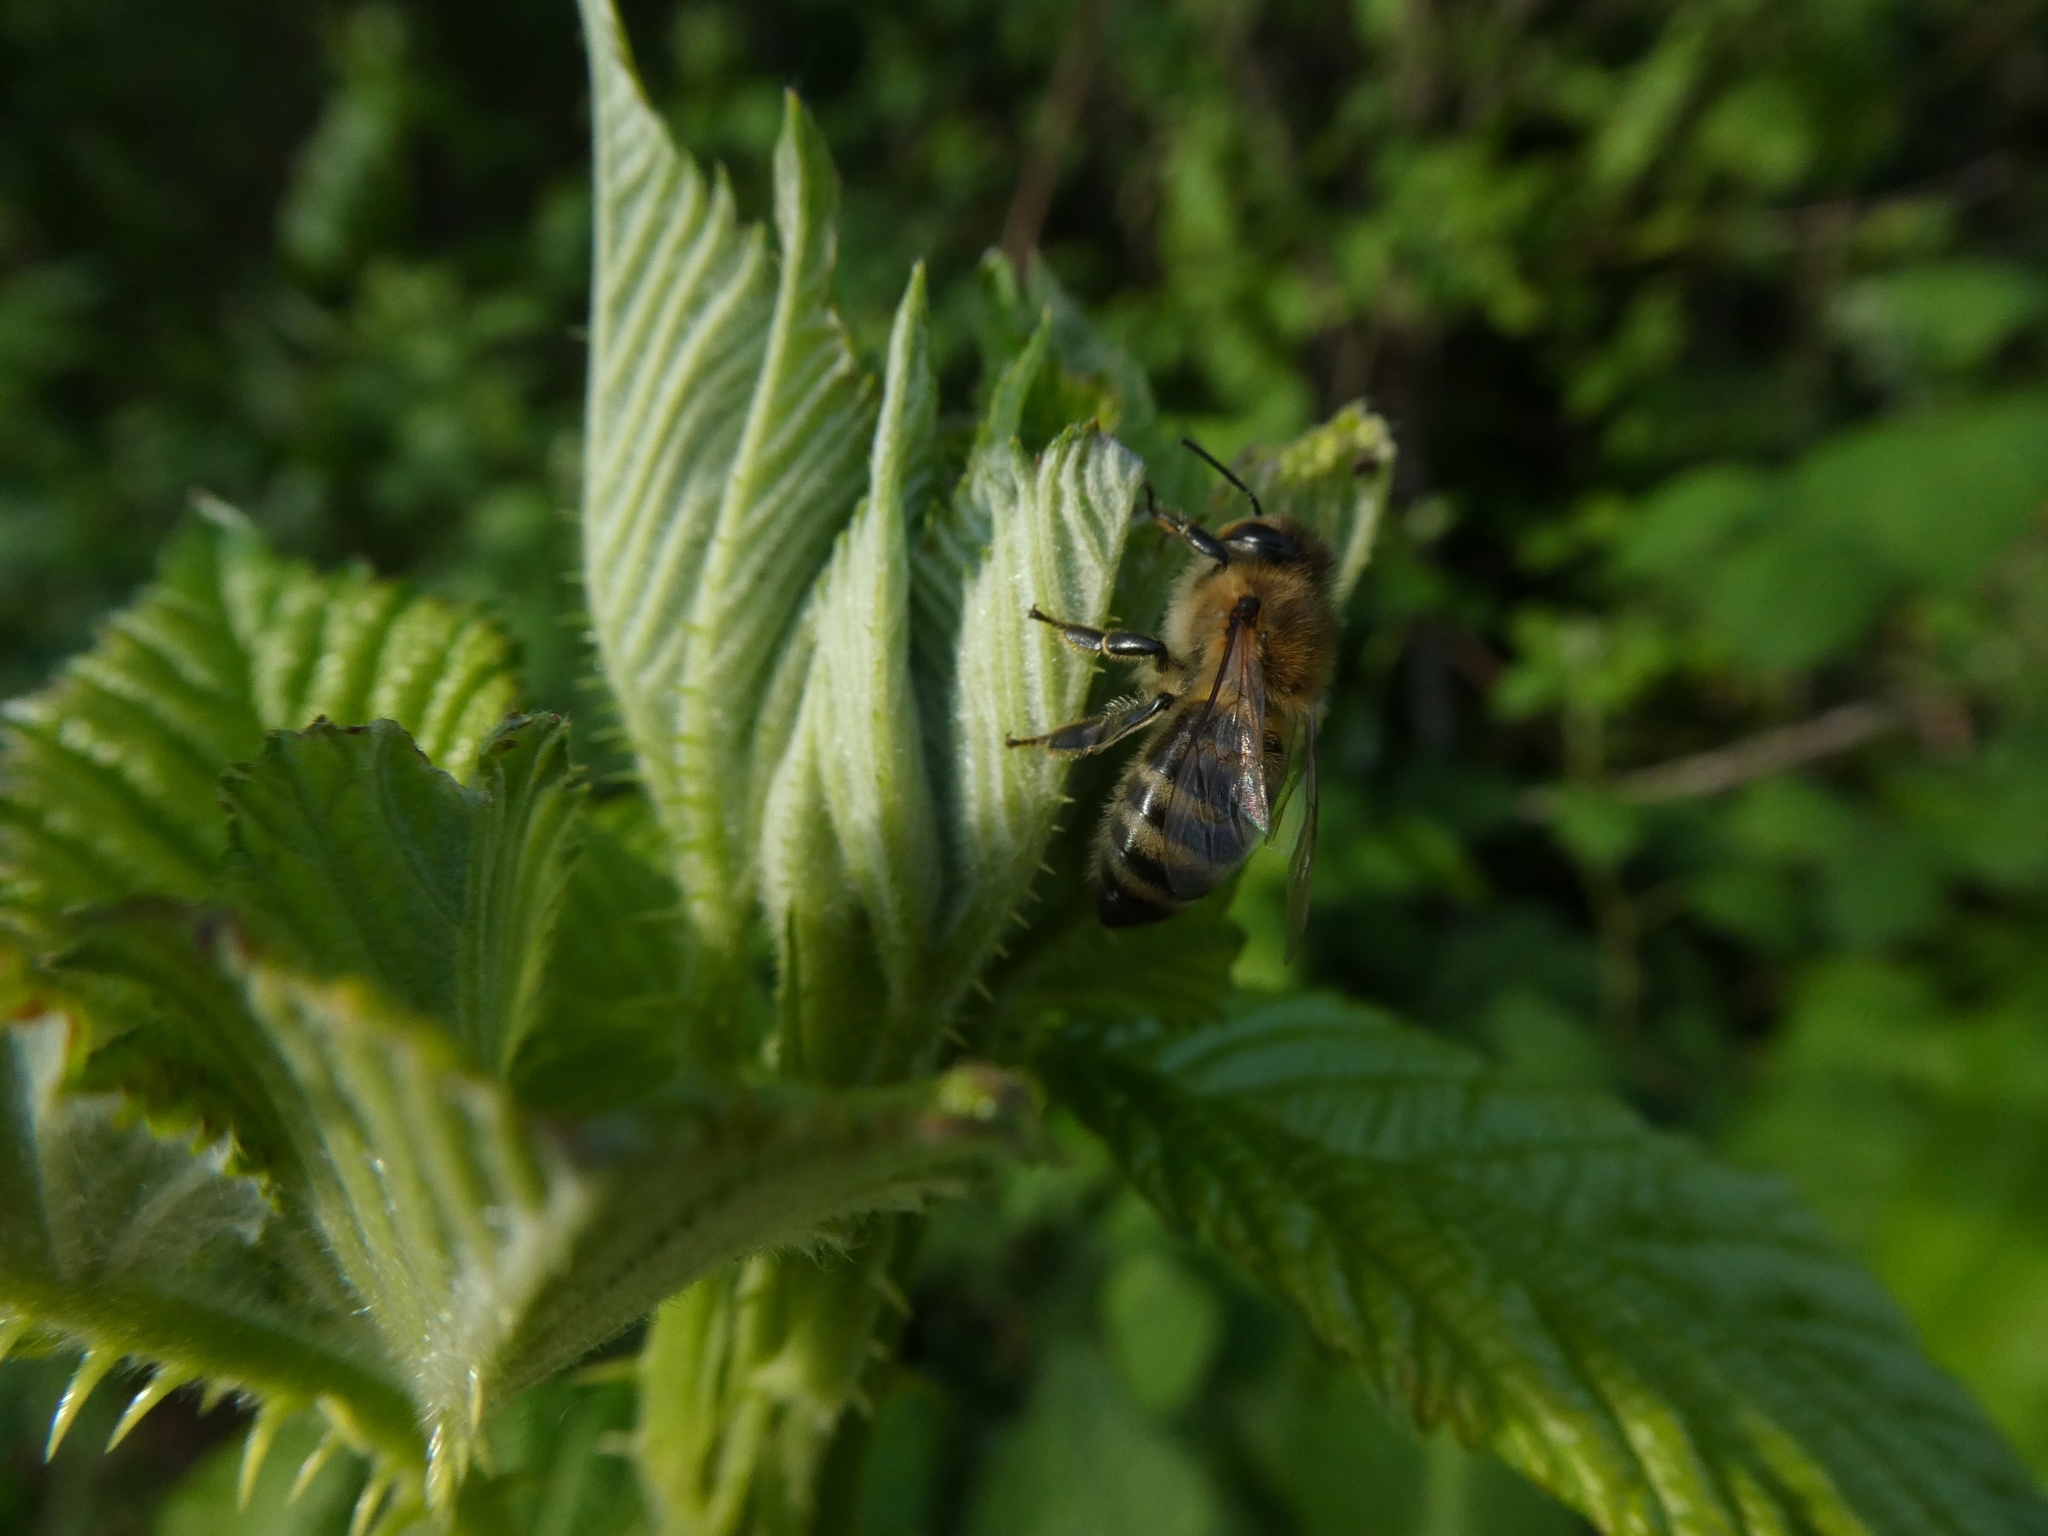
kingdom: Animalia
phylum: Arthropoda
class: Insecta
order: Hymenoptera
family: Apidae
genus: Apis
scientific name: Apis mellifera
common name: Honey bee
